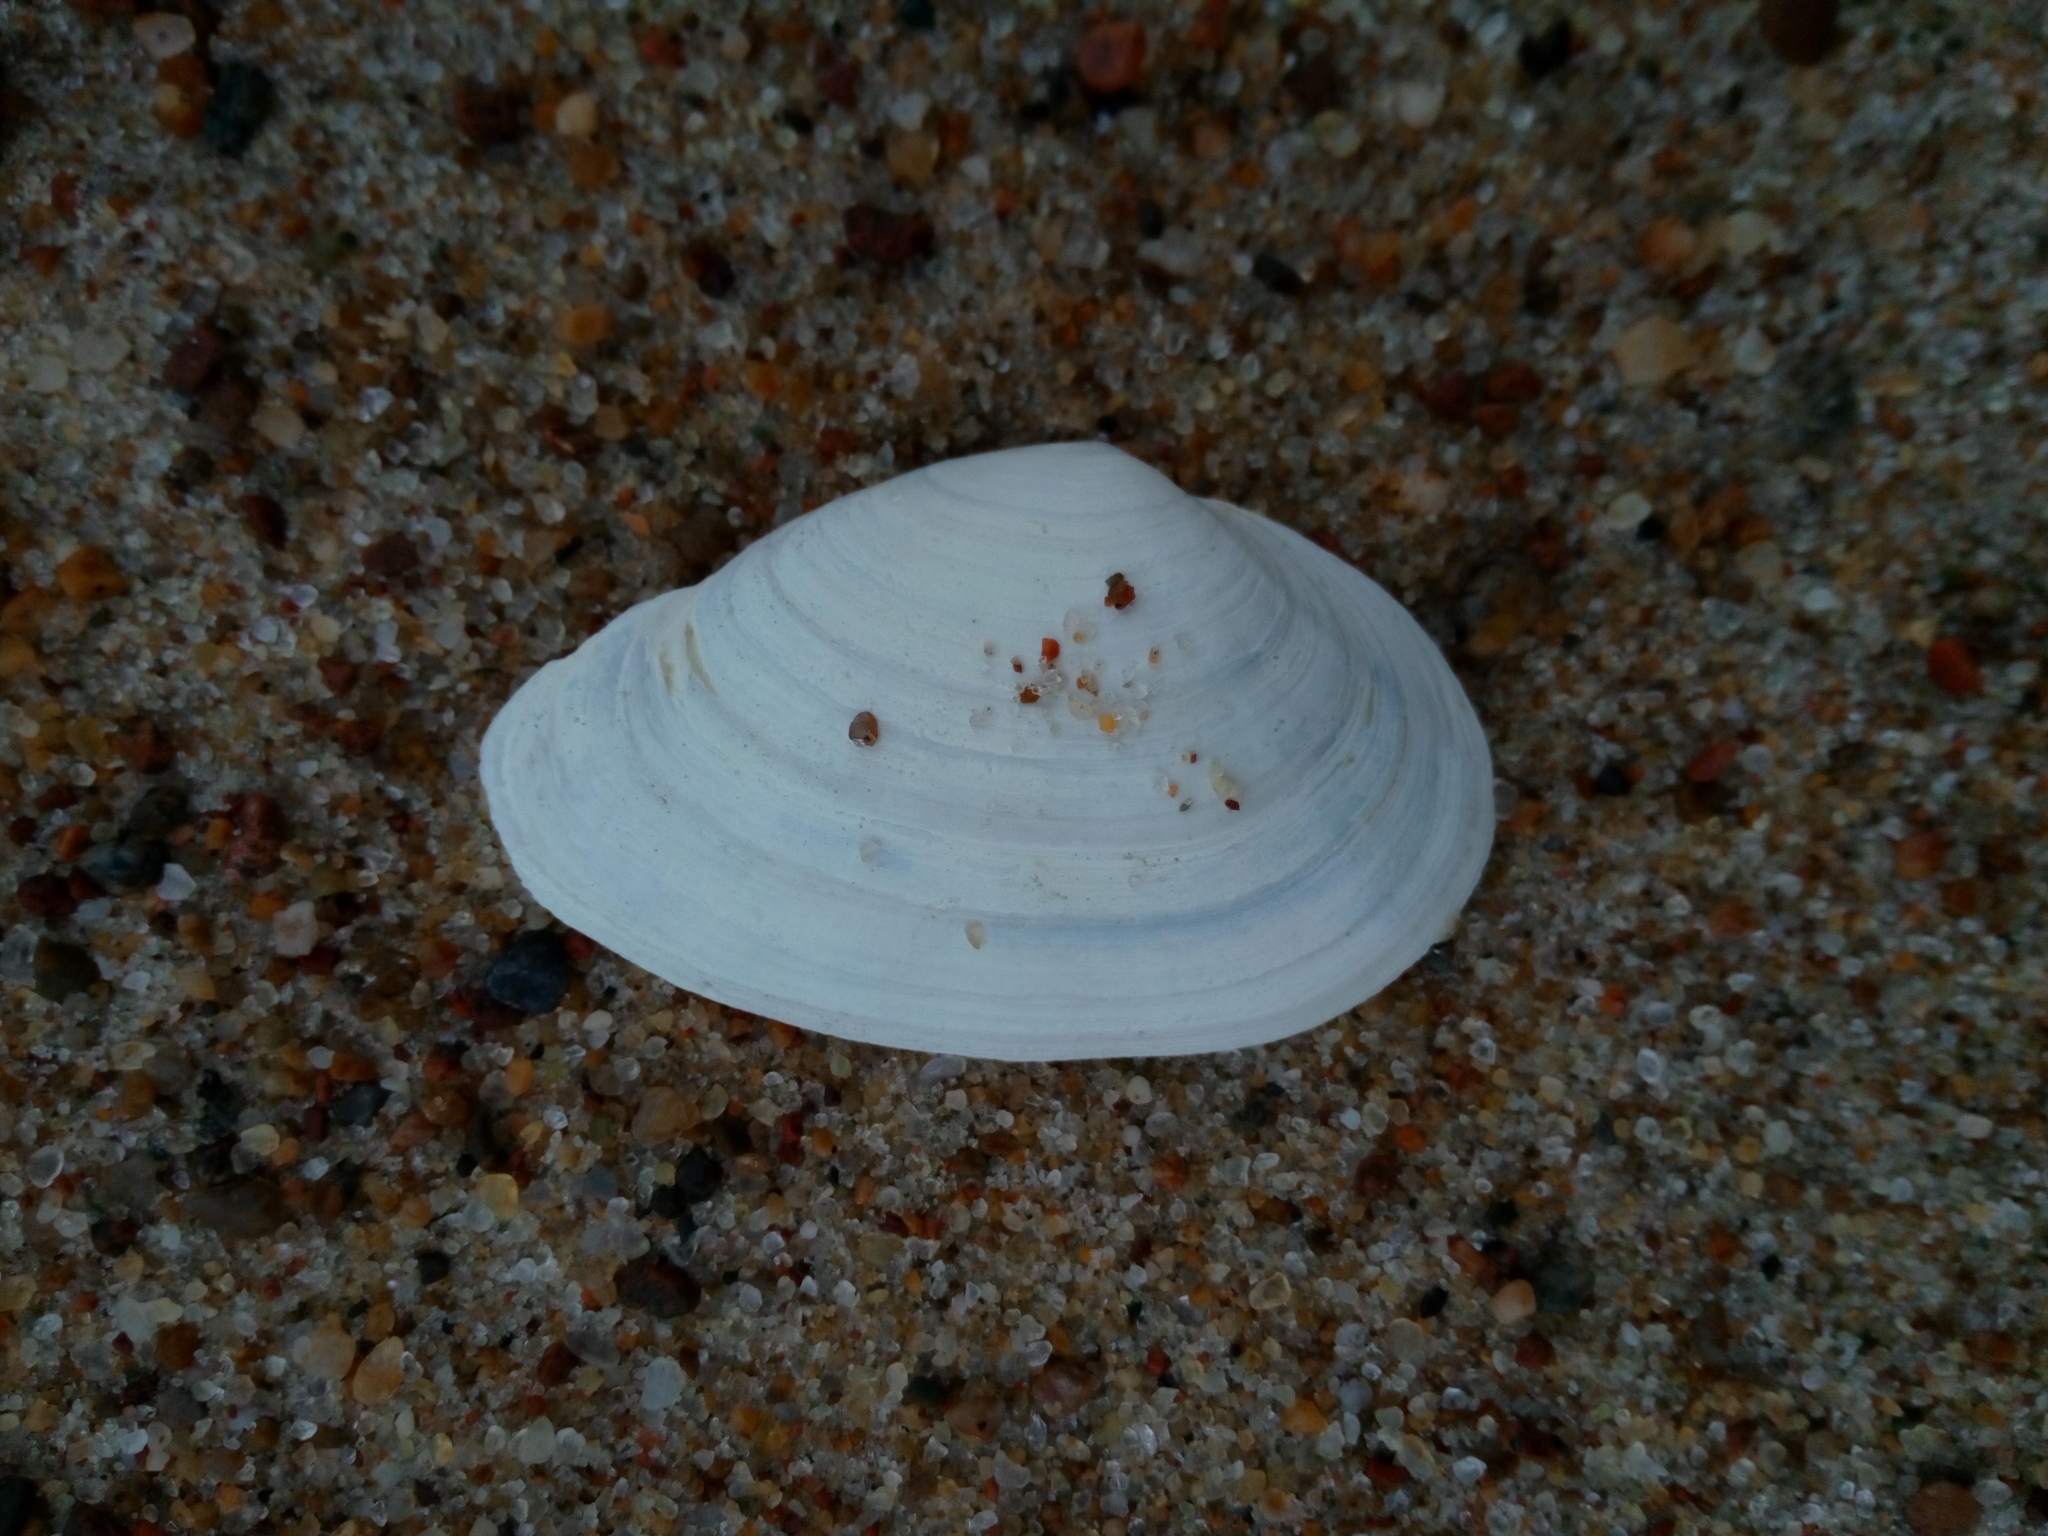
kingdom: Animalia
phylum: Mollusca
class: Bivalvia
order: Myida
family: Myidae
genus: Mya
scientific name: Mya arenaria
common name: Soft-shelled clam
